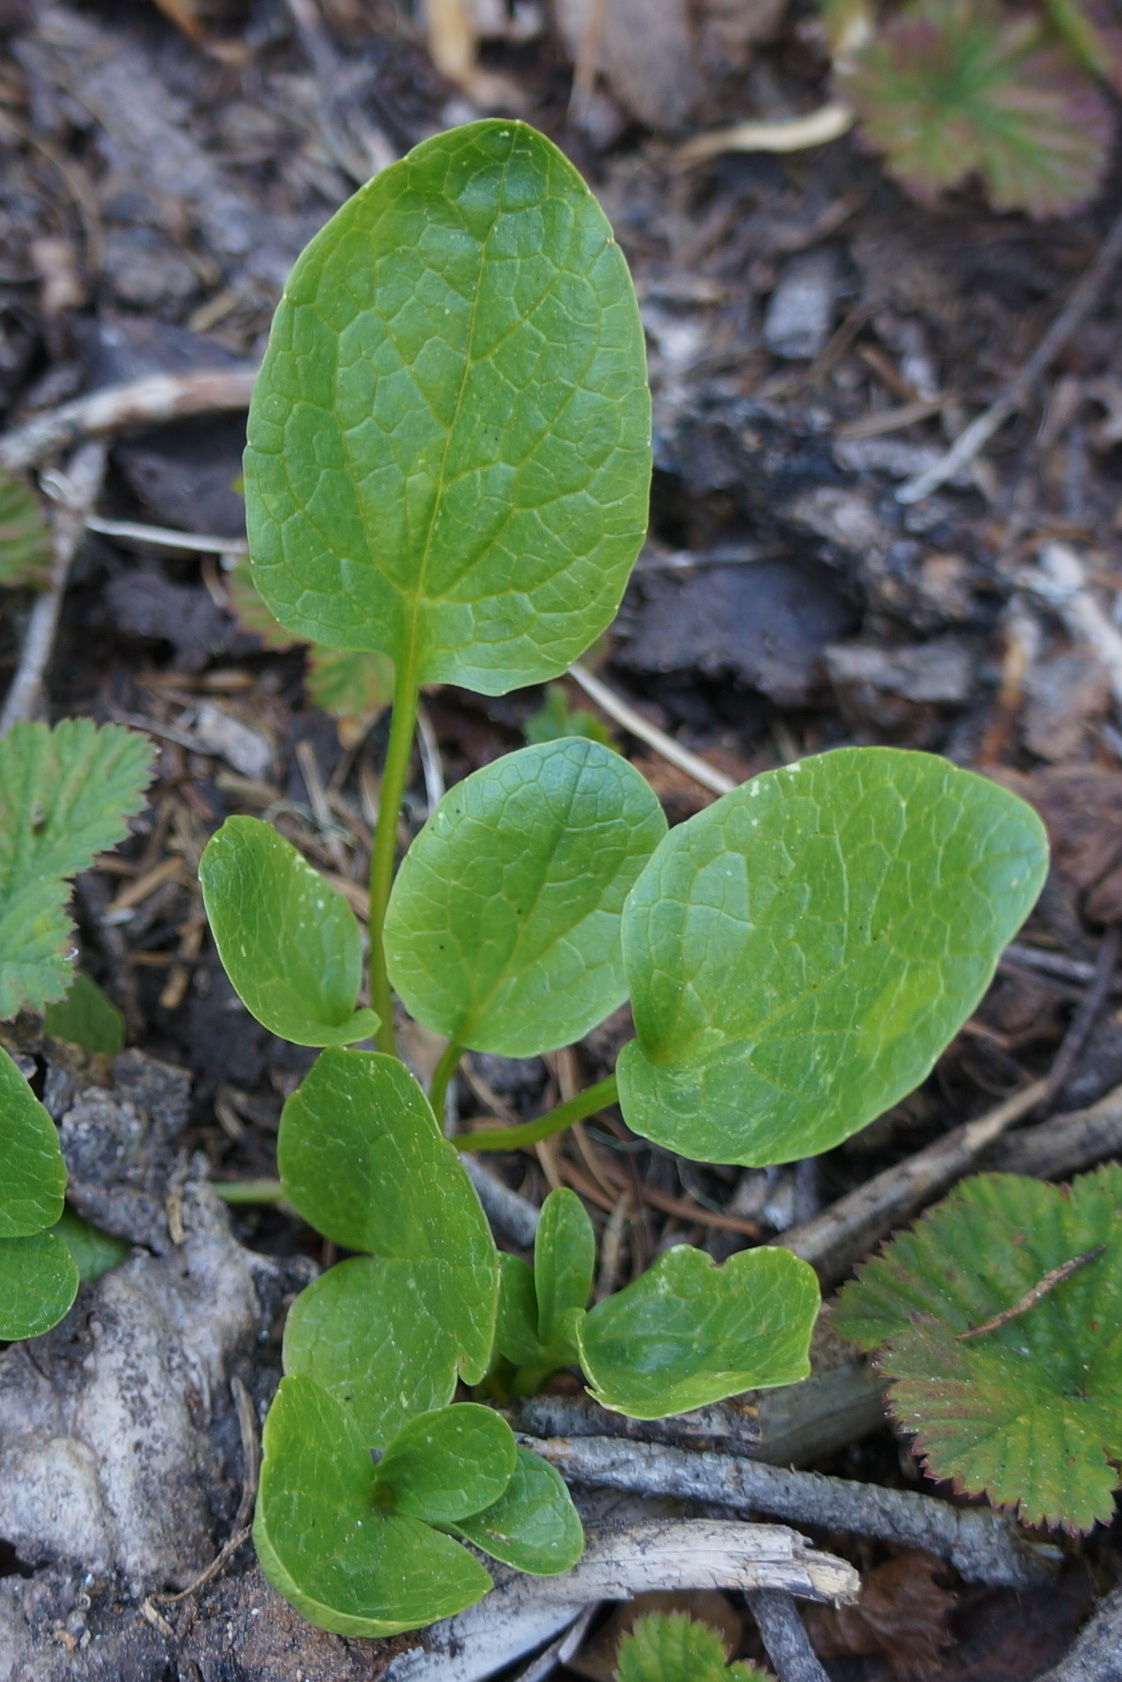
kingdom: Plantae
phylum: Tracheophyta
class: Magnoliopsida
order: Dipsacales
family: Caprifoliaceae
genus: Valeriana
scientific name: Valeriana sitchensis
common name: Pacific valerian
